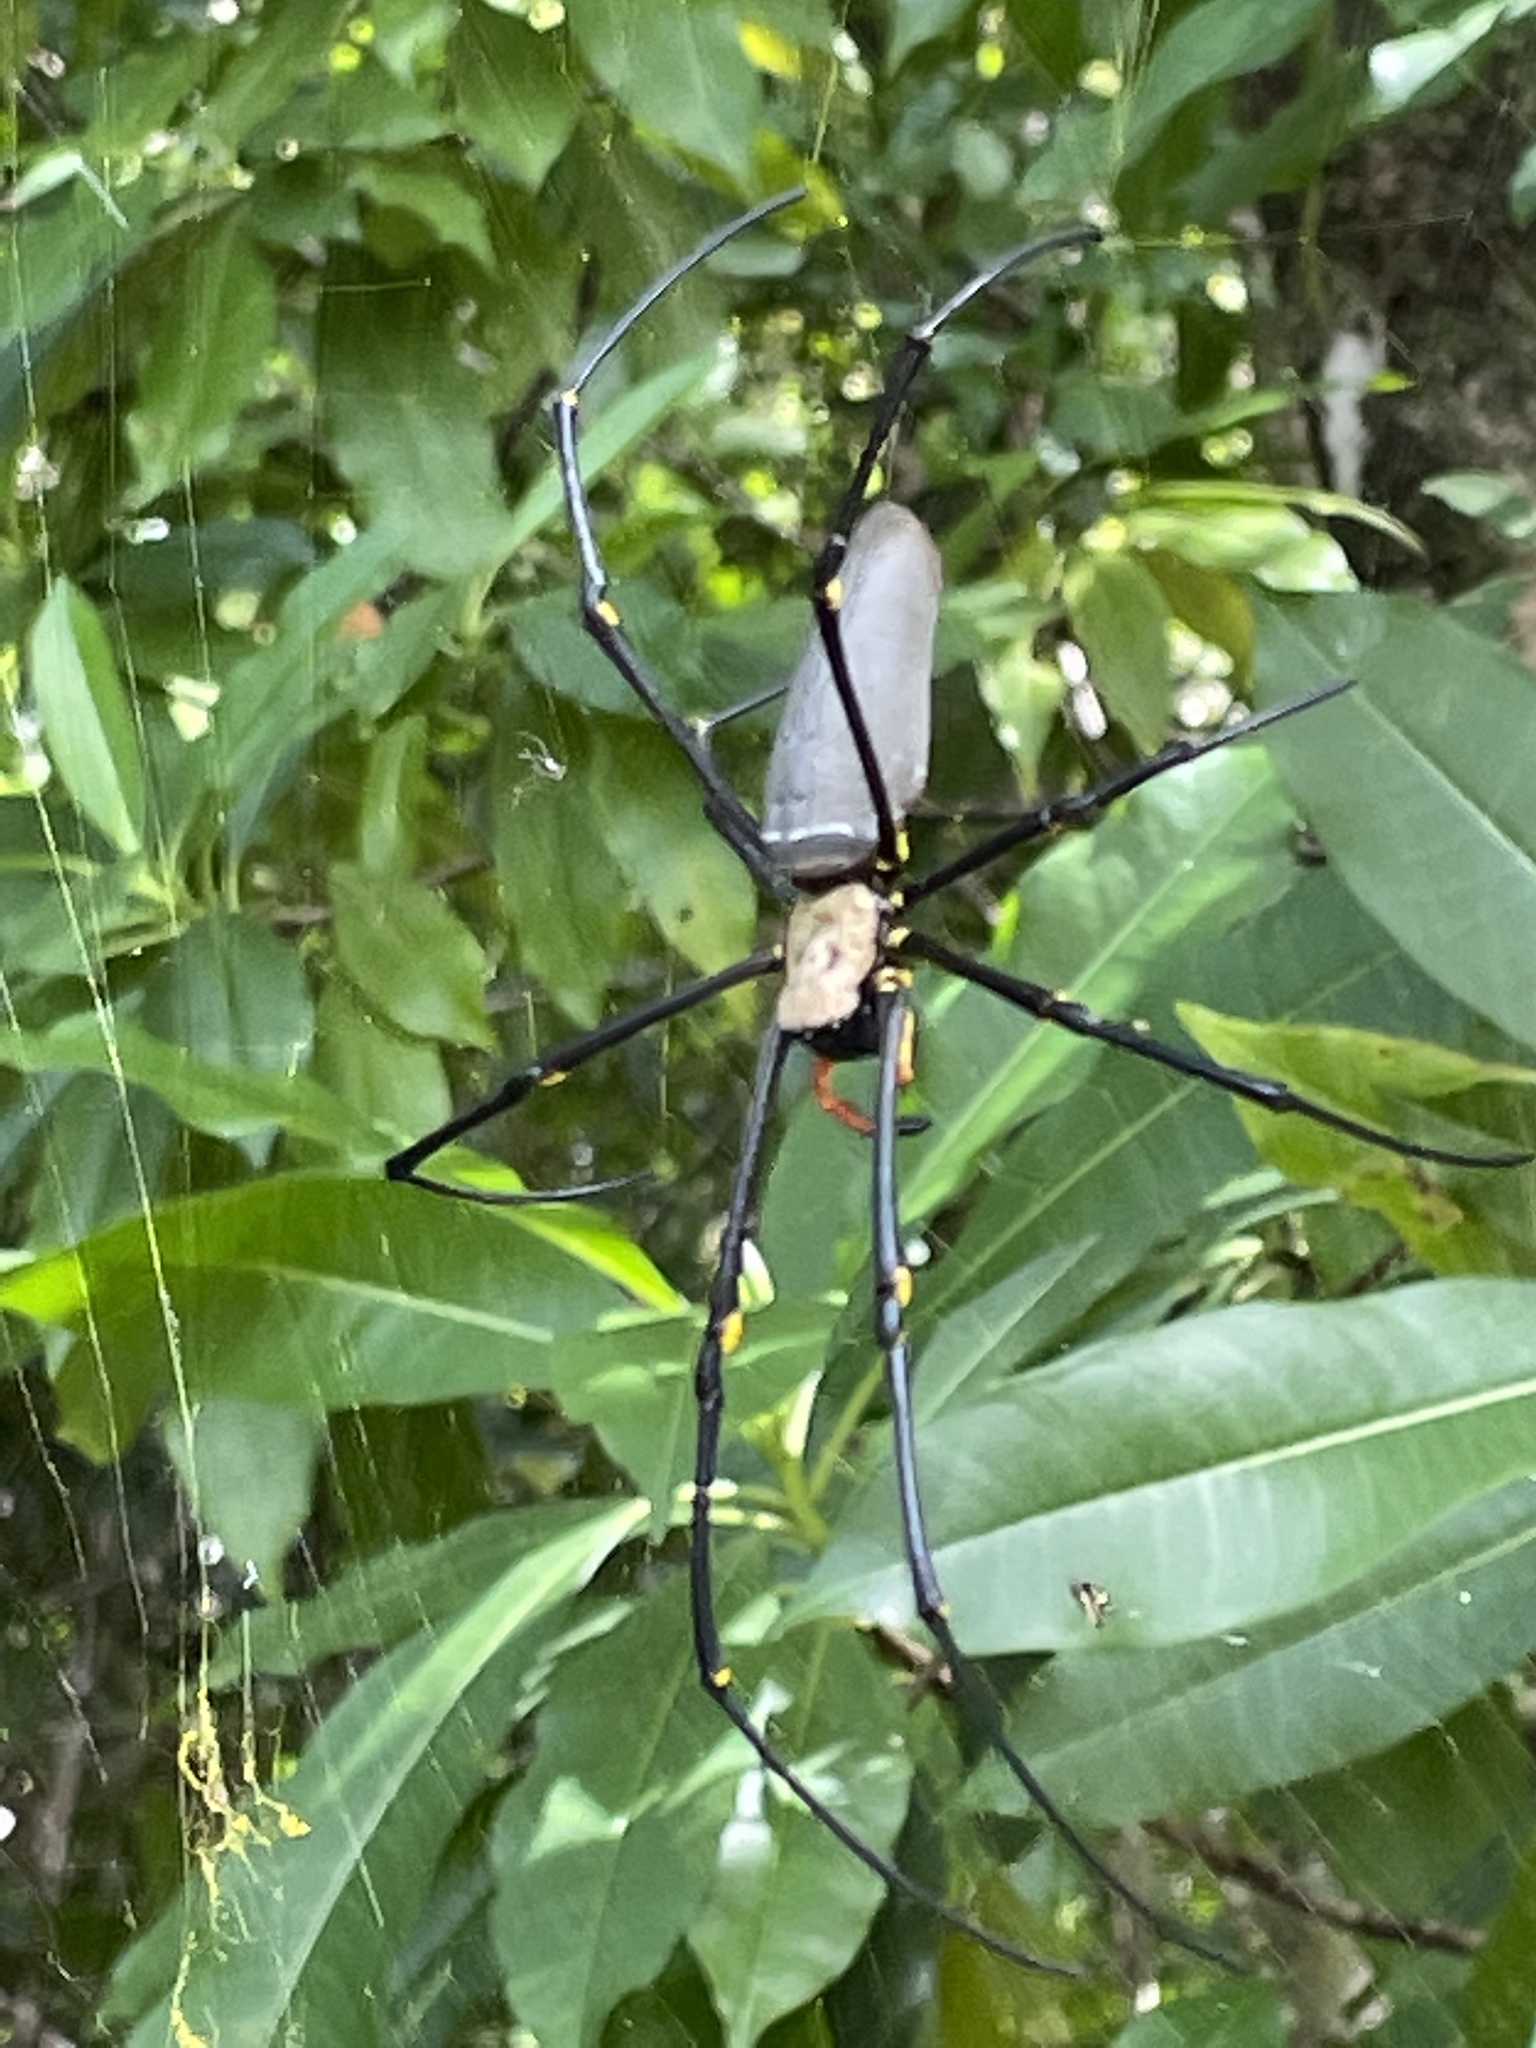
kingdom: Animalia
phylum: Arthropoda
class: Arachnida
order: Araneae
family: Araneidae
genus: Nephila
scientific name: Nephila pilipes
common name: Giant golden orb weaver
